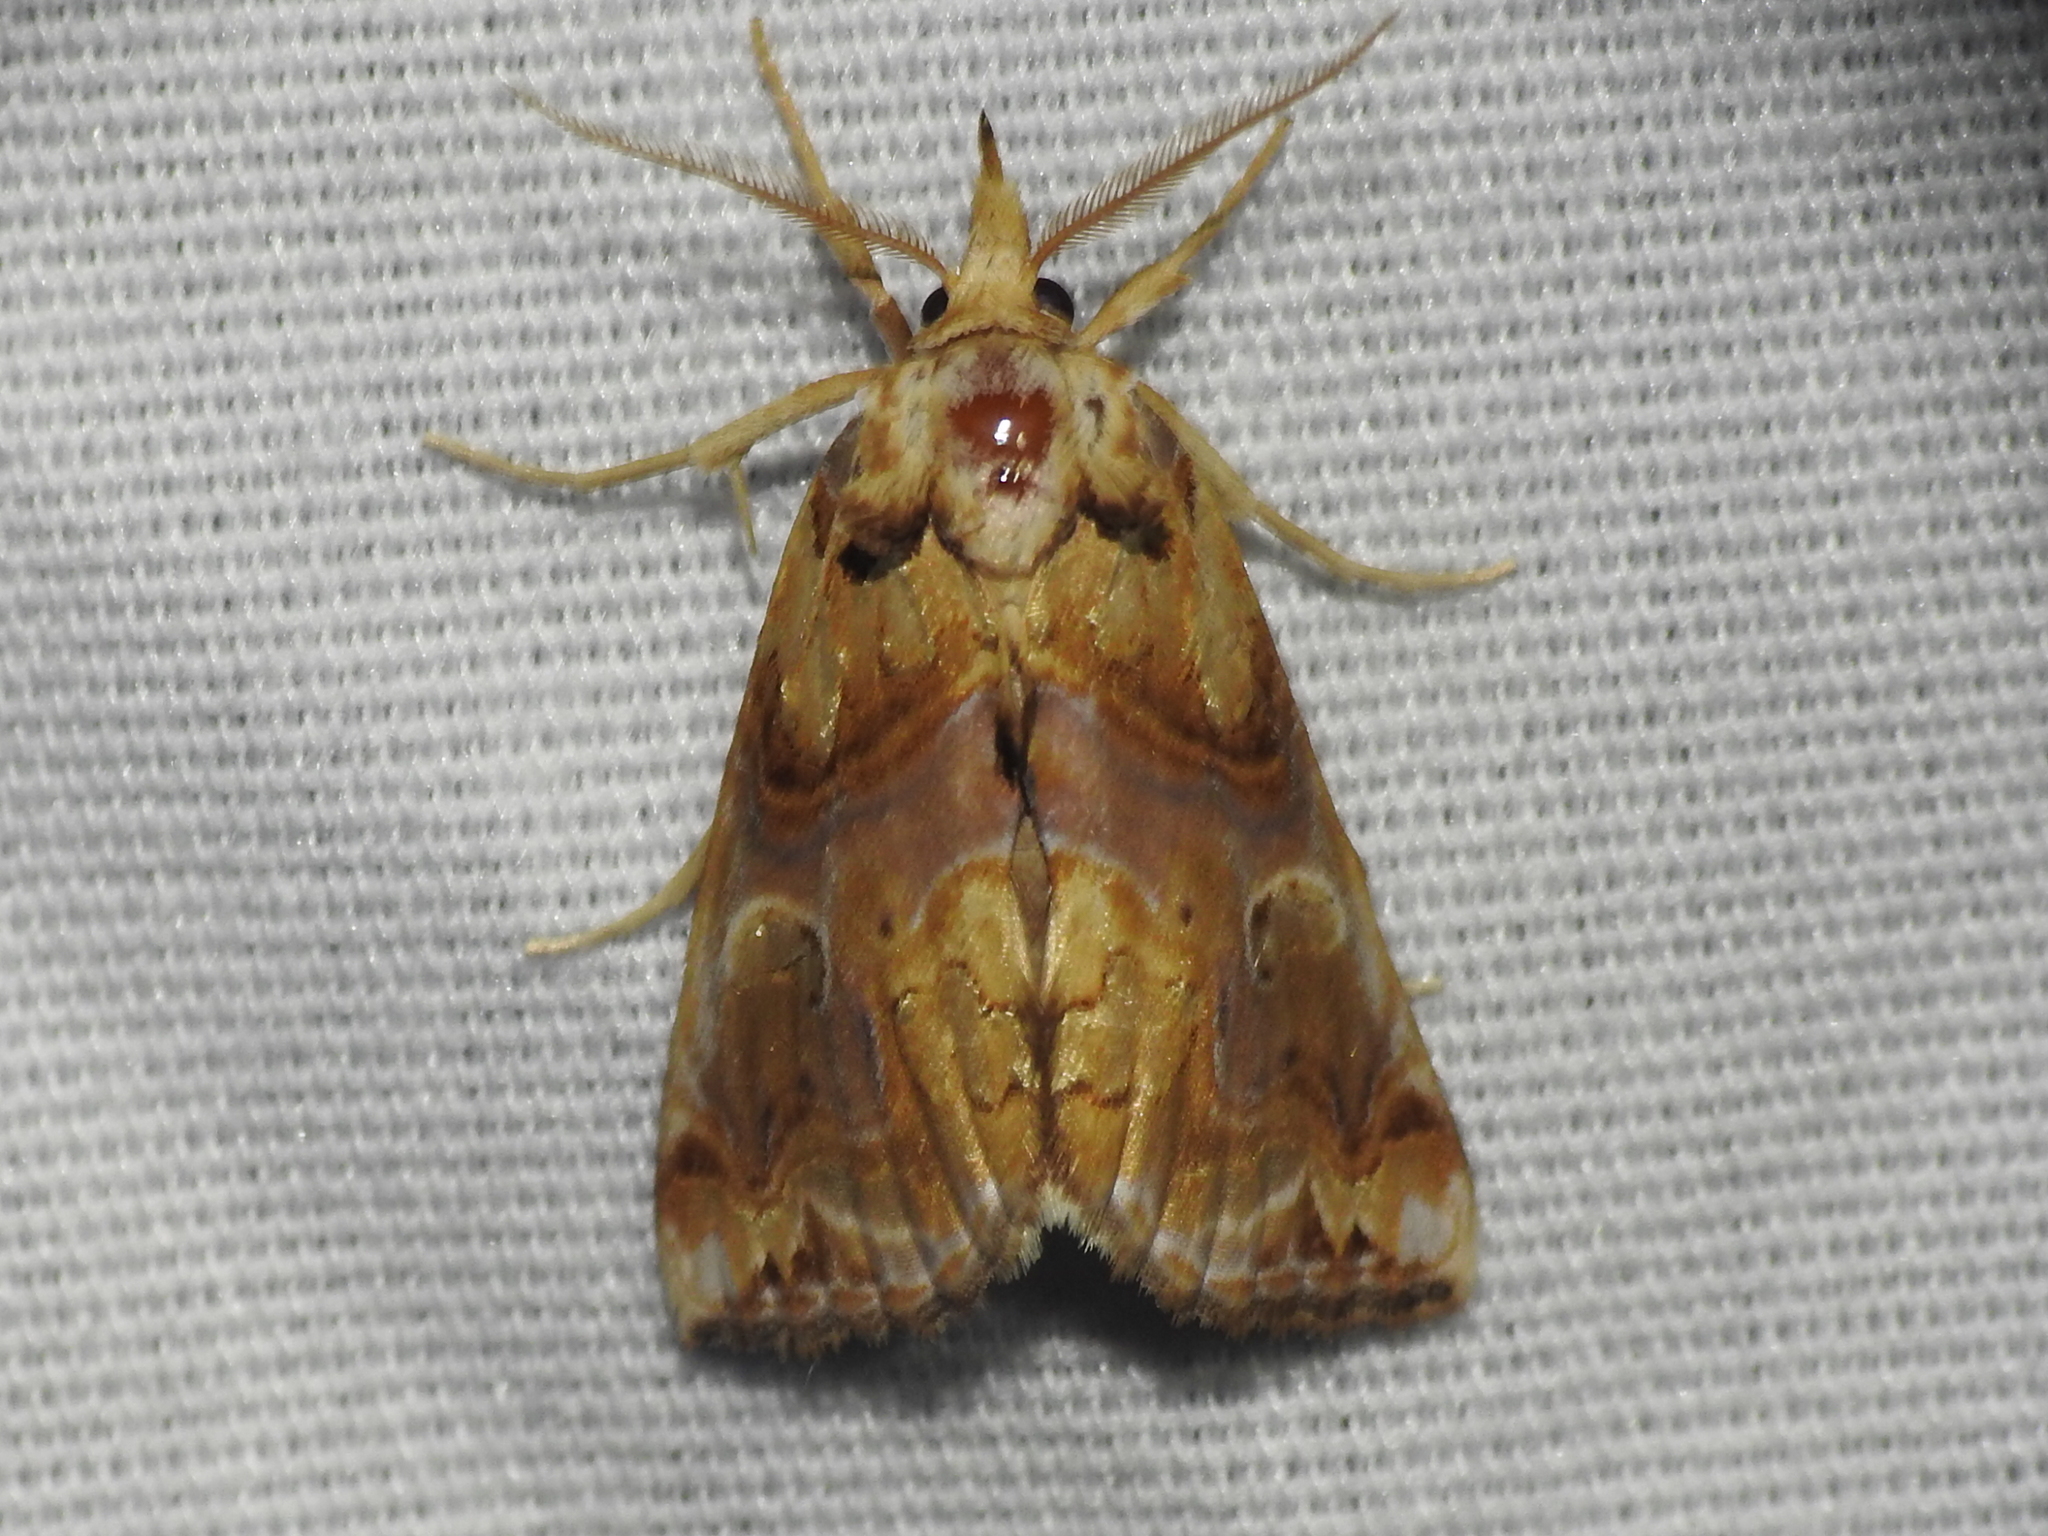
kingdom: Animalia
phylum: Arthropoda
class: Insecta
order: Lepidoptera
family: Erebidae
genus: Plusiodonta
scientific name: Plusiodonta compressipalpis
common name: Moonseed moth
